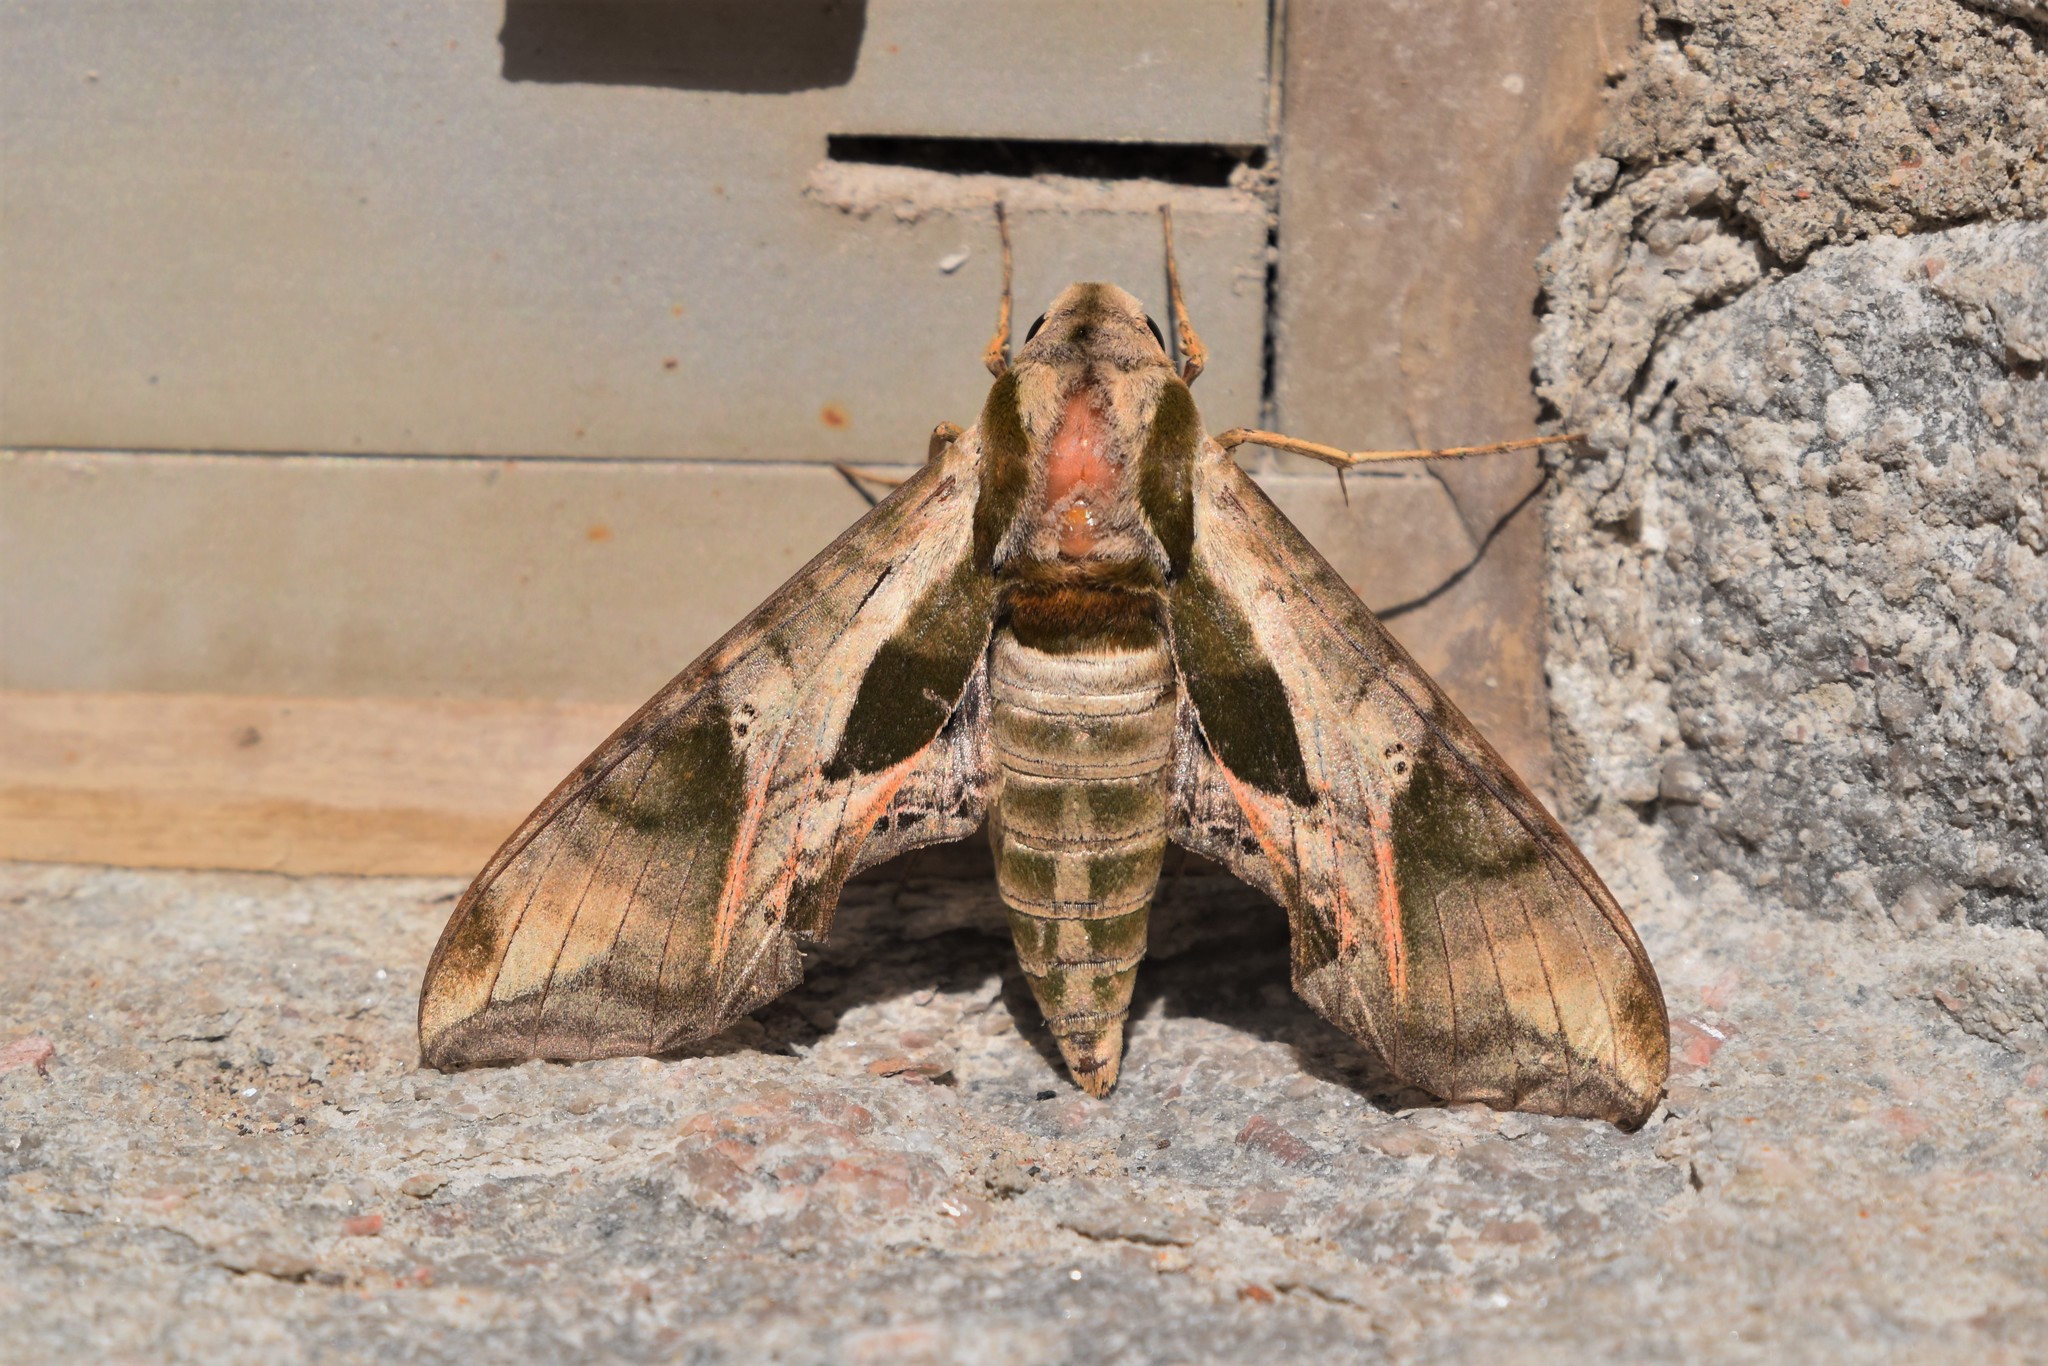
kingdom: Animalia
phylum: Arthropoda
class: Insecta
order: Lepidoptera
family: Sphingidae
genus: Eumorpha
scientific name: Eumorpha pandorus
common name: Pandora sphinx
